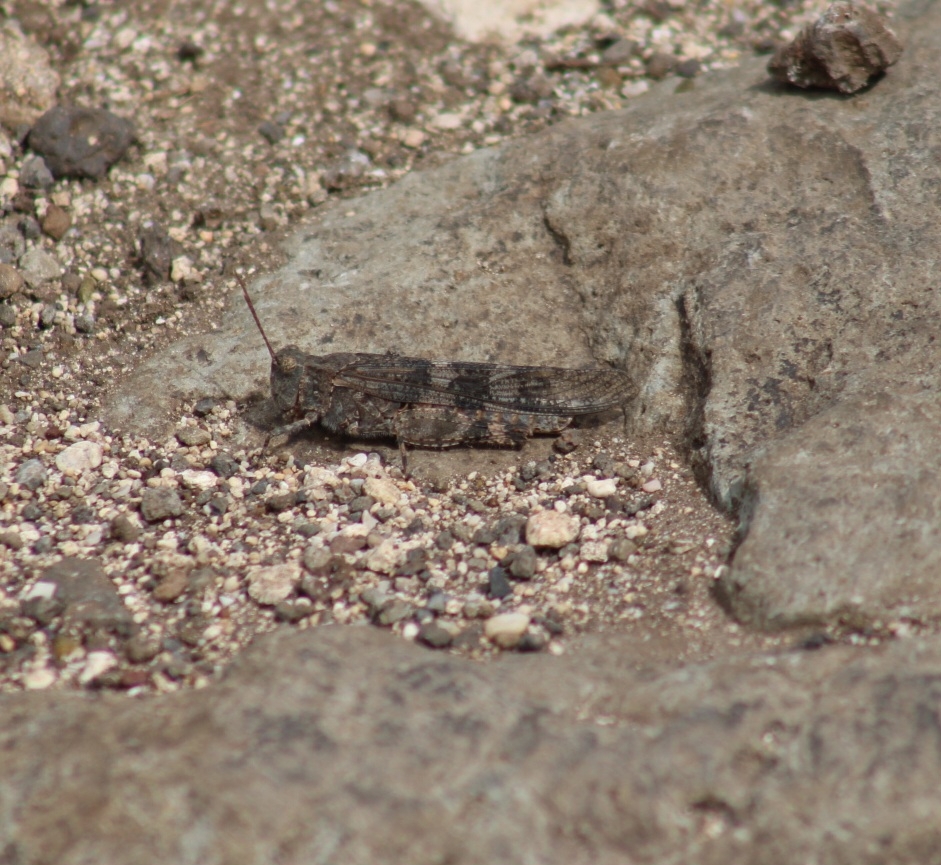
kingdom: Animalia
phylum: Arthropoda
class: Insecta
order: Orthoptera
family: Acrididae
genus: Trimerotropis
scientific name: Trimerotropis pallidipennis
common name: Pallid-winged grasshopper
